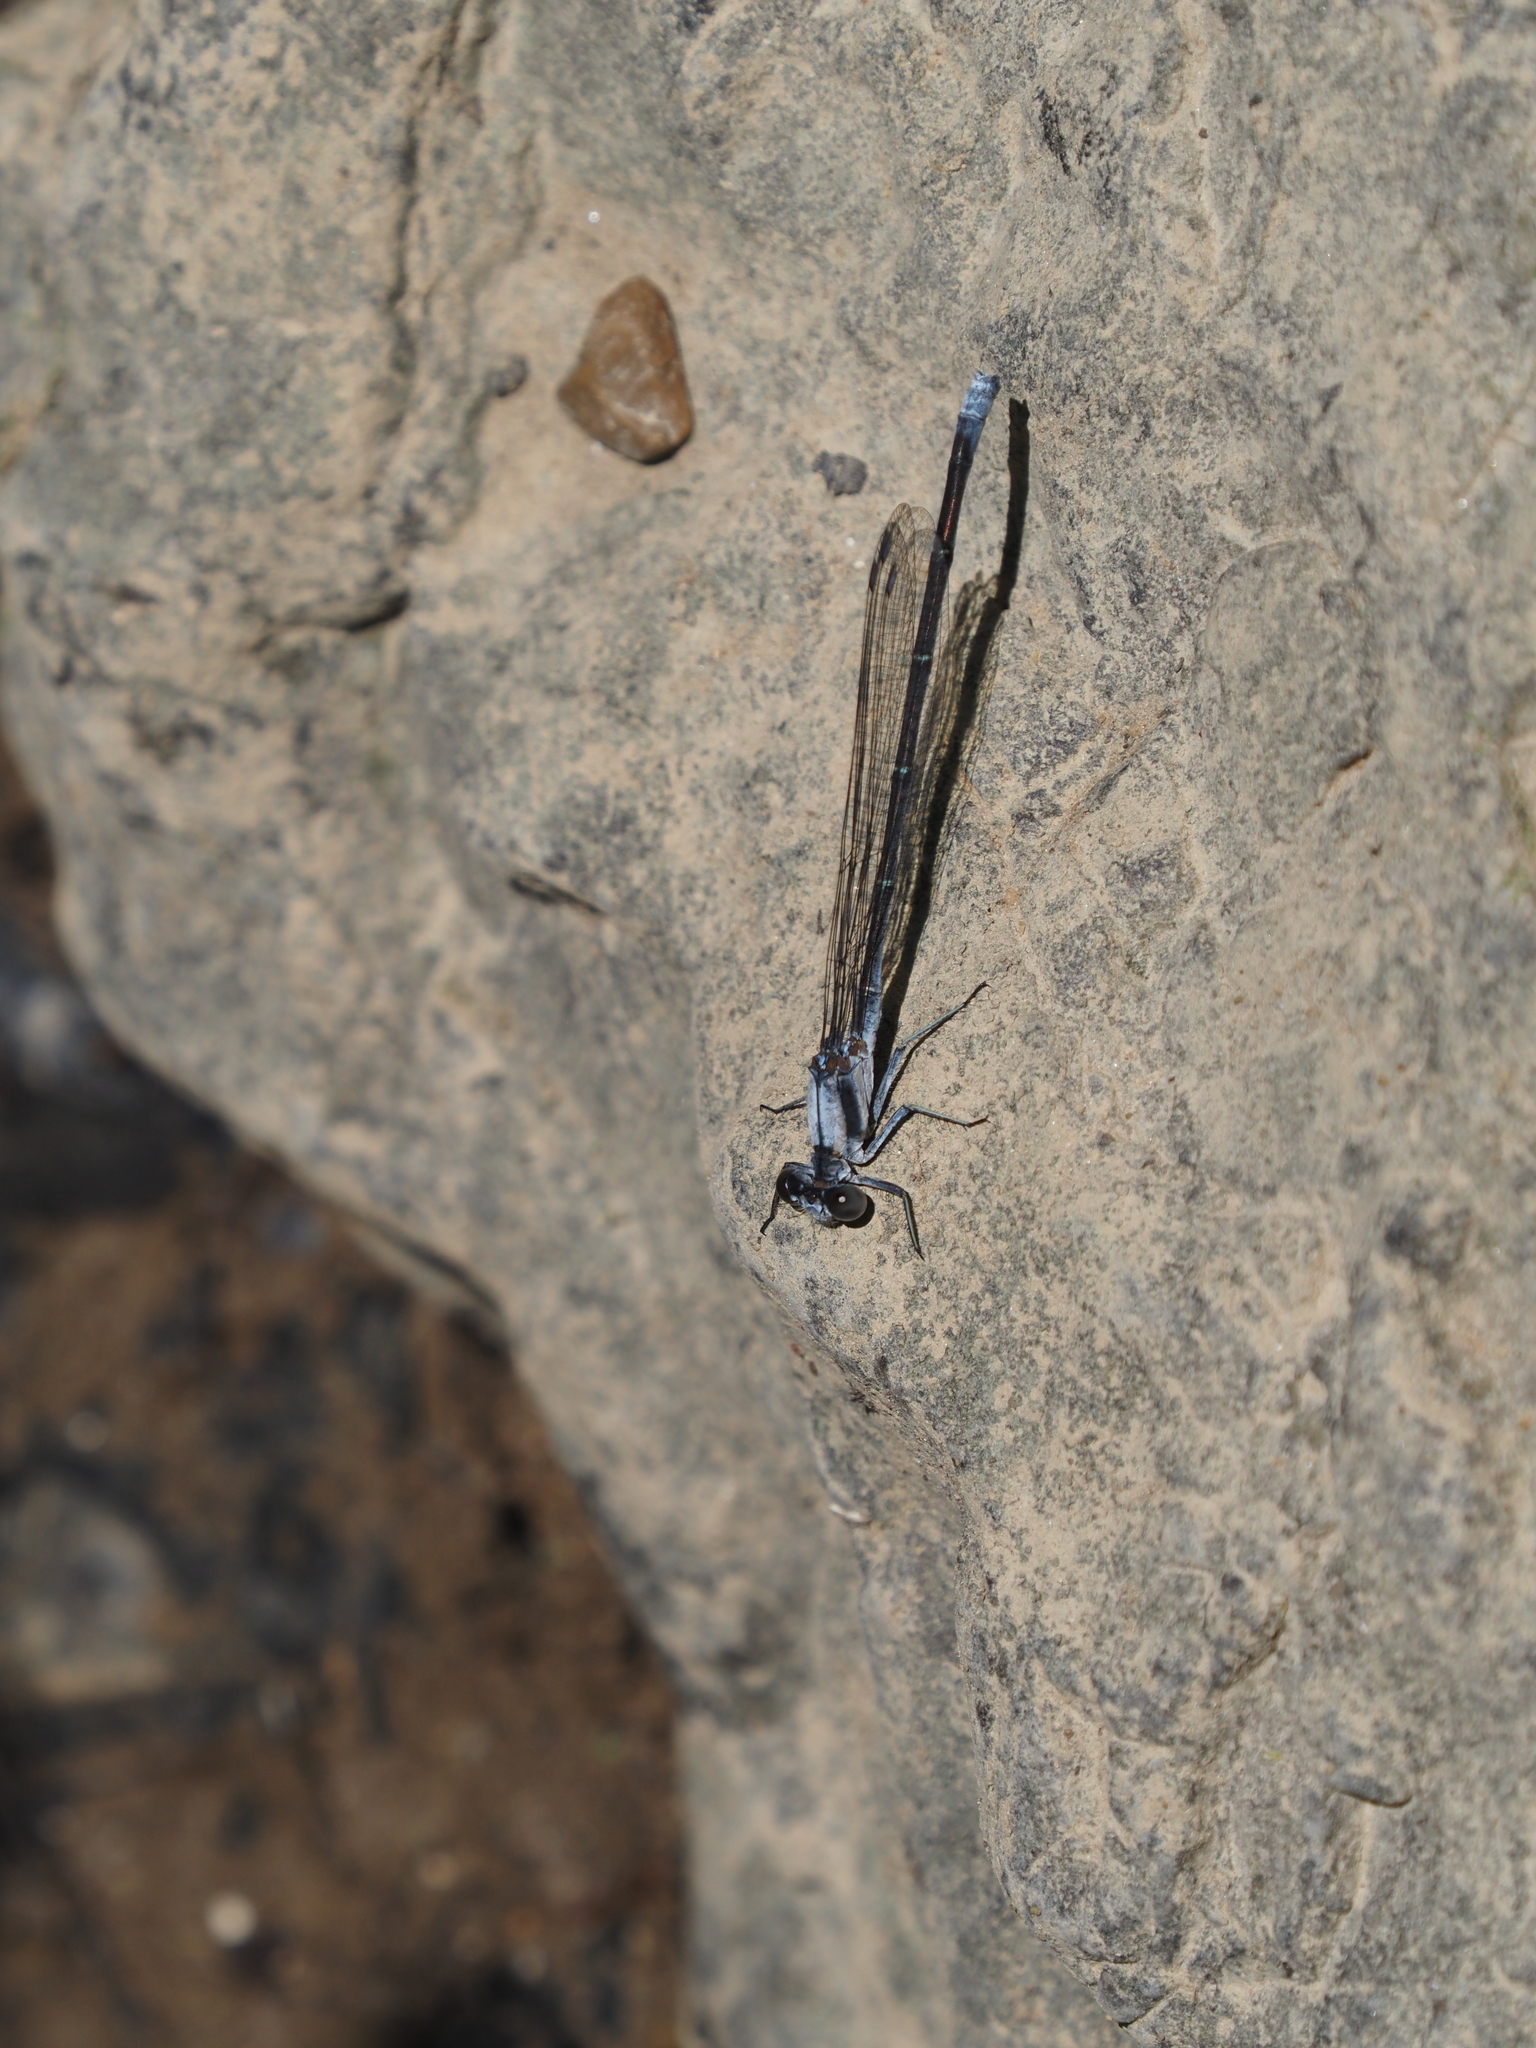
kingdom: Animalia
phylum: Arthropoda
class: Insecta
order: Odonata
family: Coenagrionidae
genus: Argia
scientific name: Argia moesta
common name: Powdered dancer
